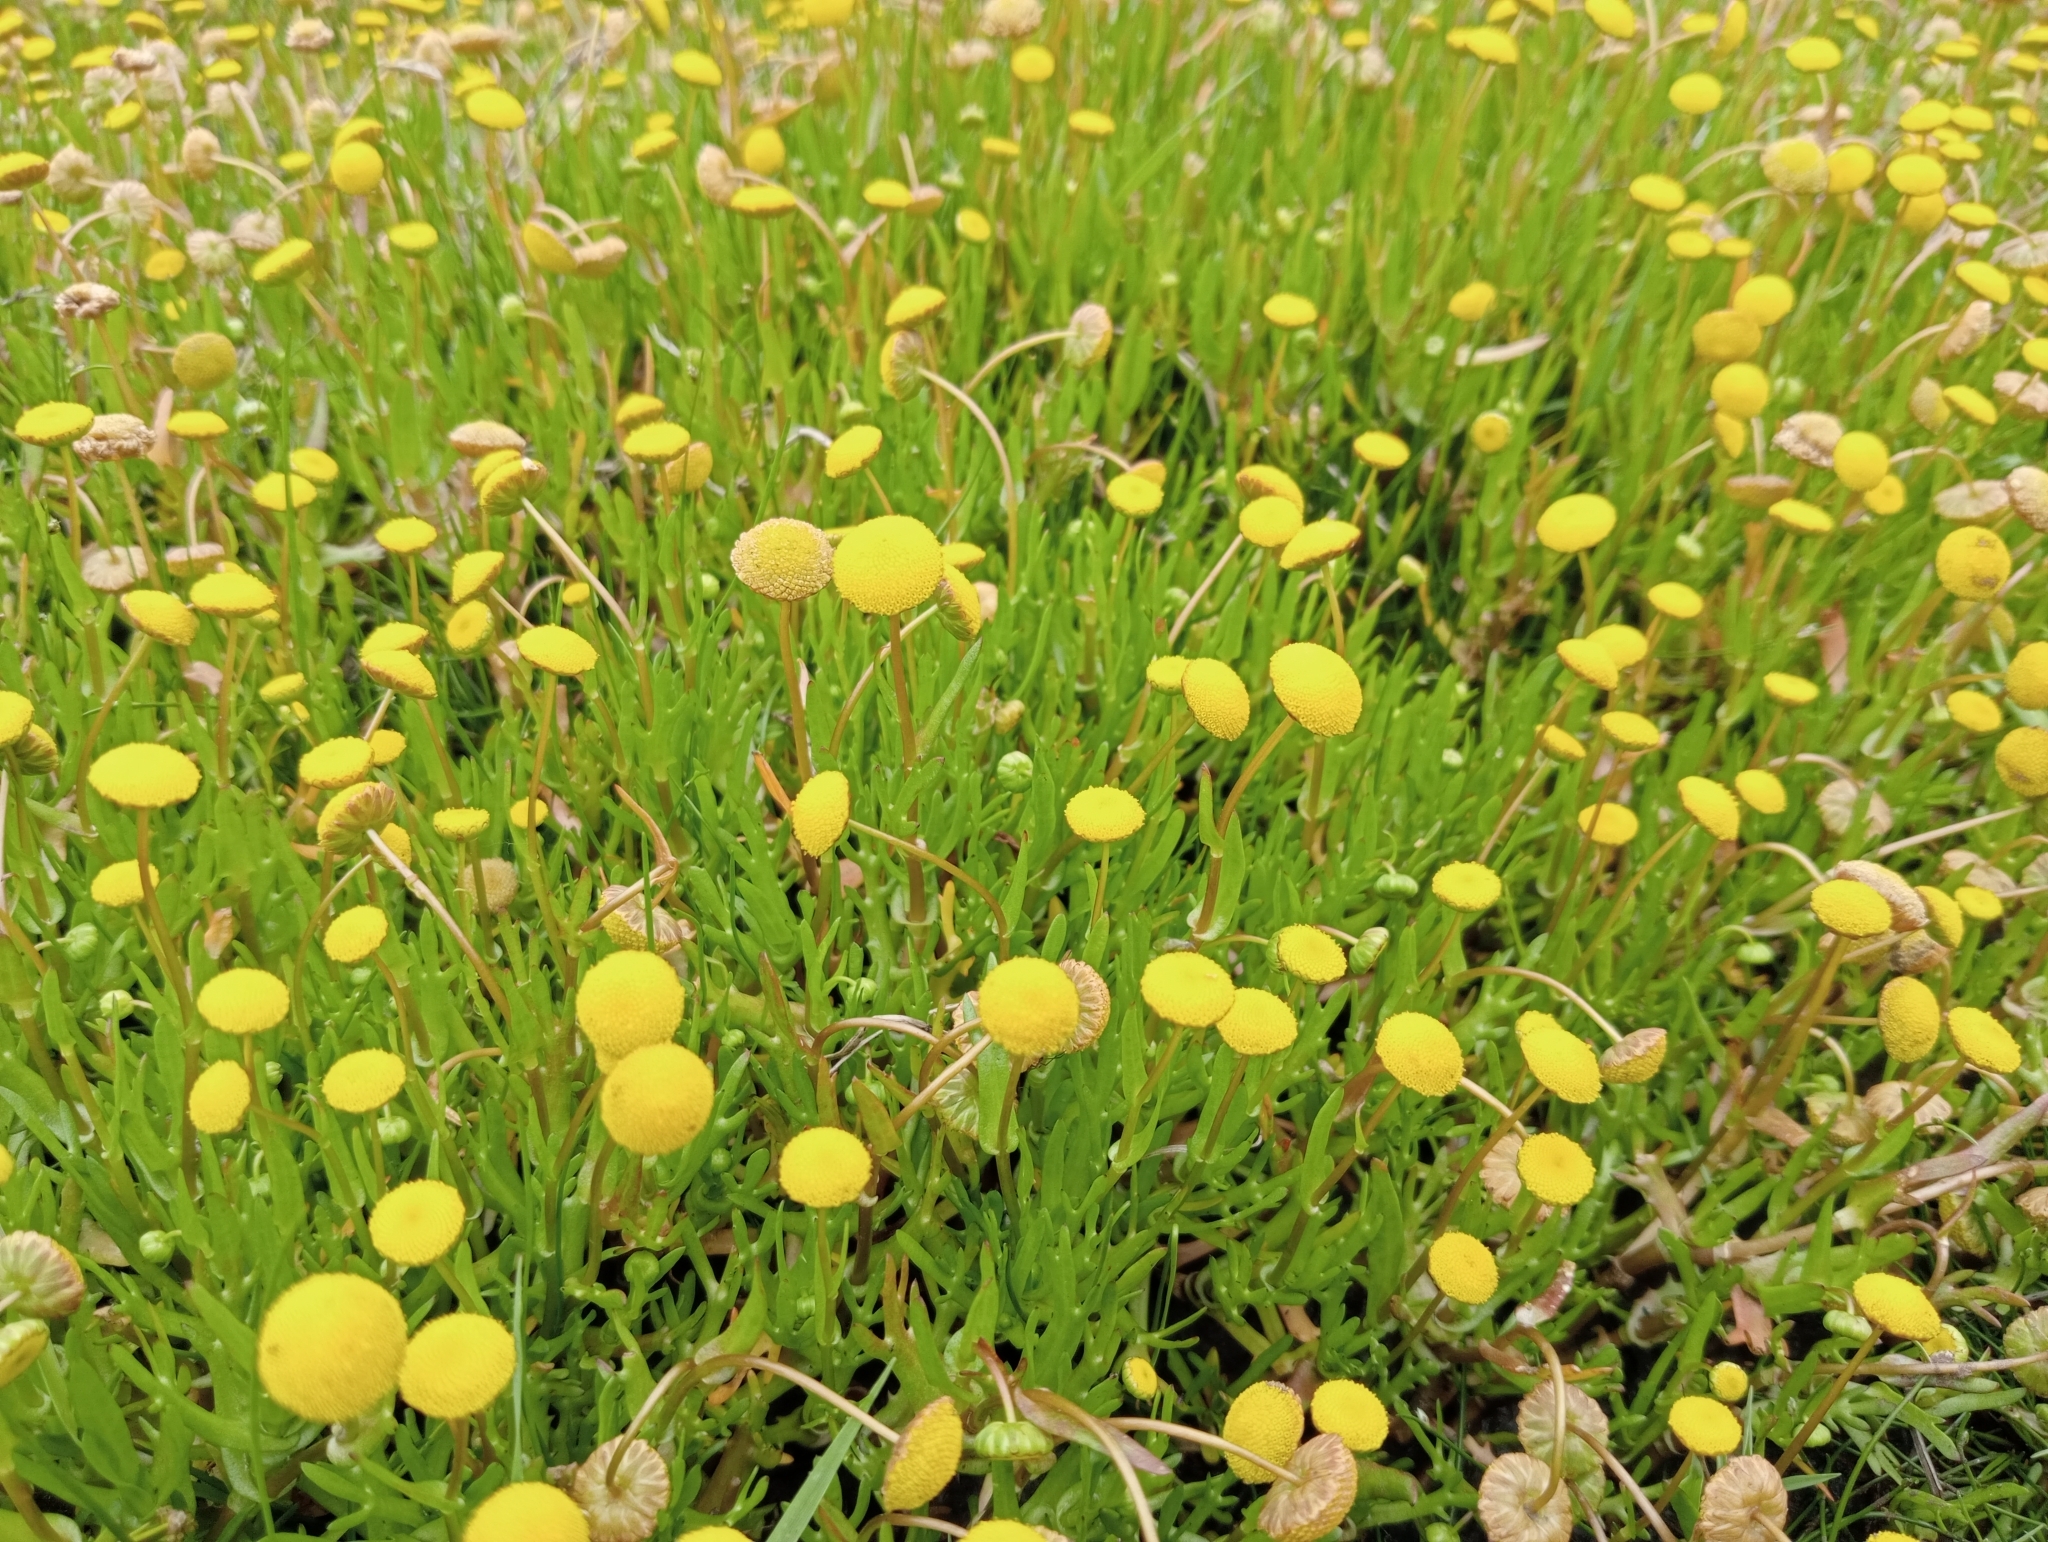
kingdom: Plantae
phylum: Tracheophyta
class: Magnoliopsida
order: Asterales
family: Asteraceae
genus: Cotula
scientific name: Cotula coronopifolia
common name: Buttonweed
